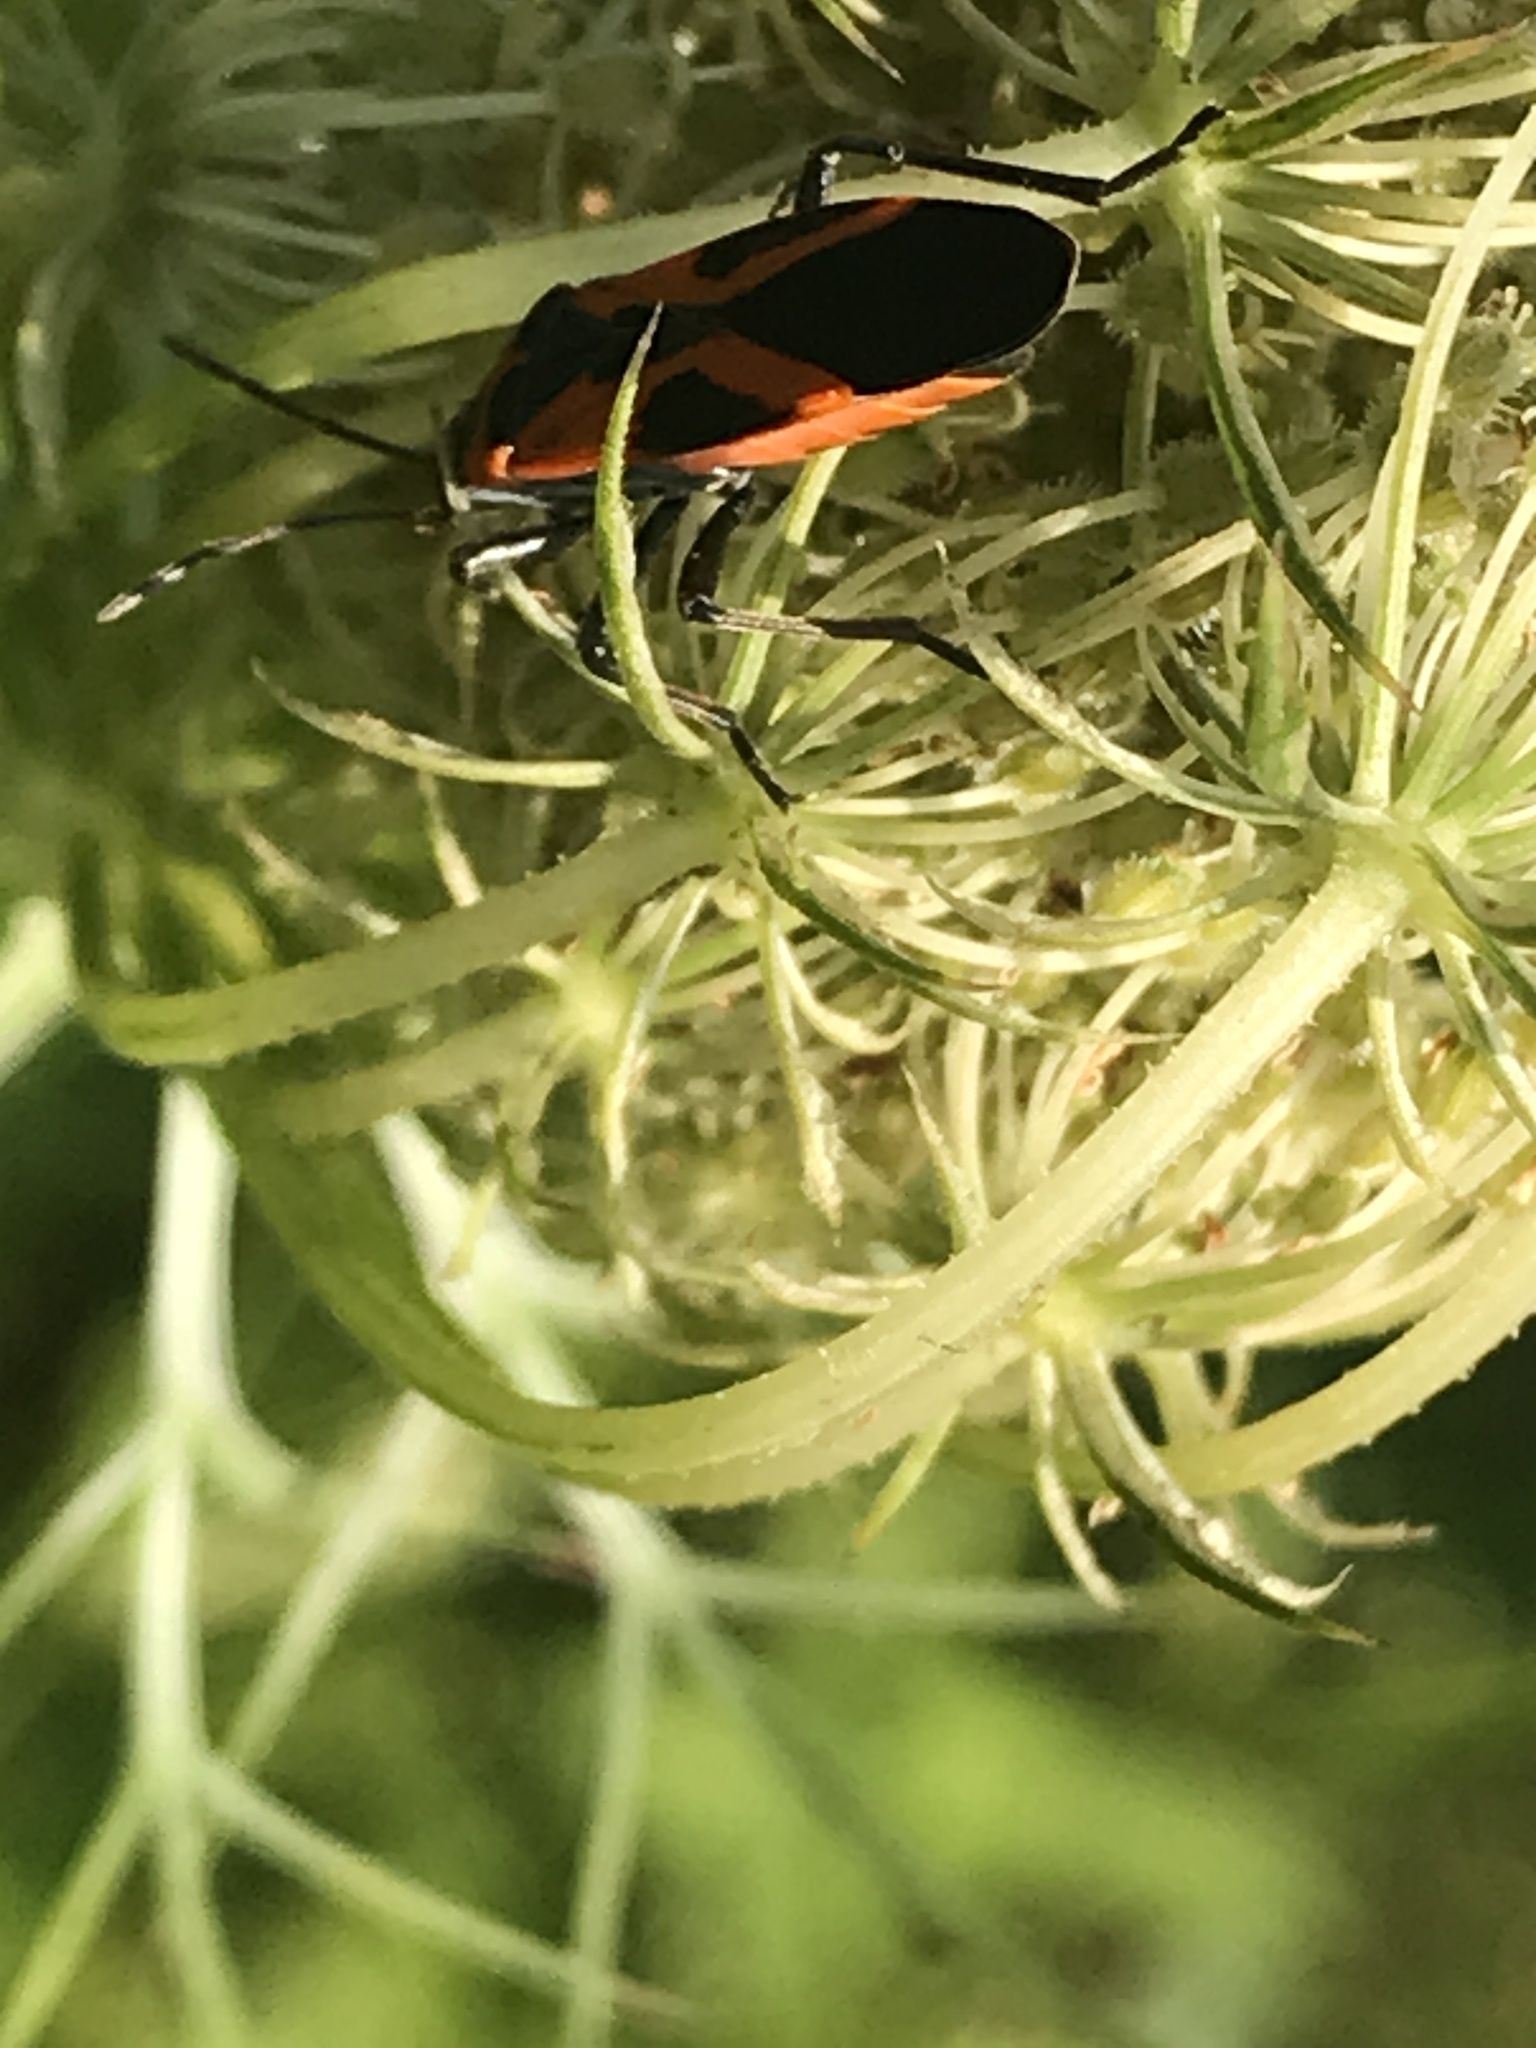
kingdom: Animalia
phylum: Arthropoda
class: Insecta
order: Hemiptera
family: Lygaeidae
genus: Lygaeus
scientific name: Lygaeus turcicus
